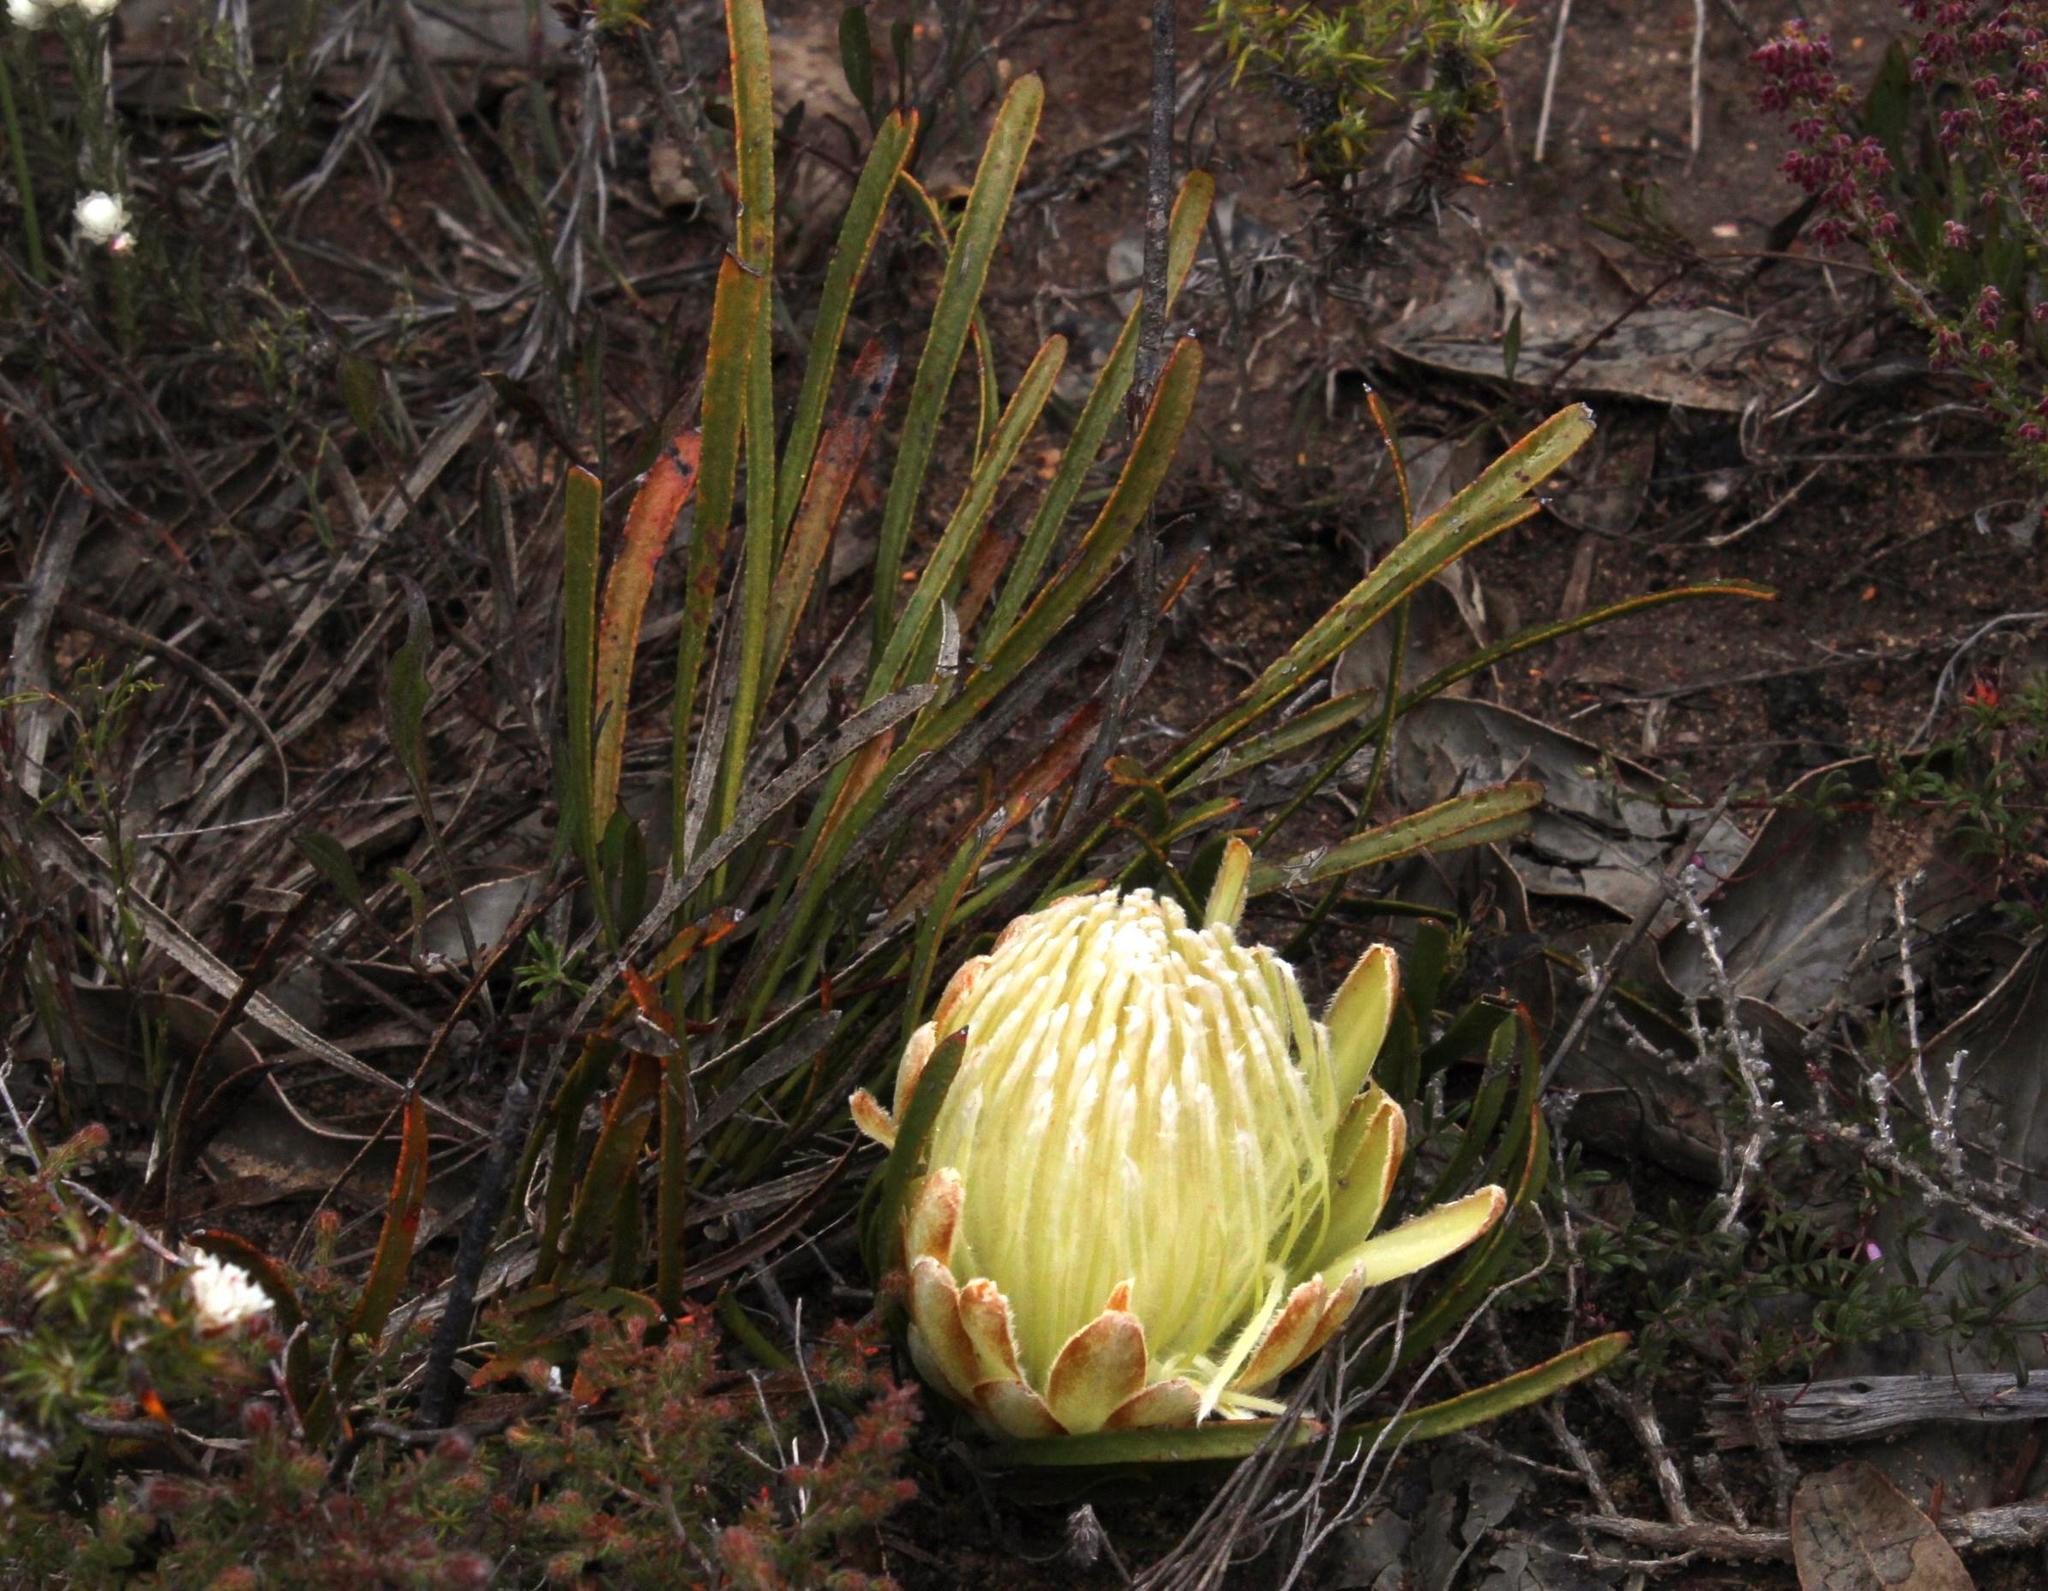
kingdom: Plantae
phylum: Tracheophyta
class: Magnoliopsida
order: Proteales
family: Proteaceae
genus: Protea
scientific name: Protea aspera
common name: Rough-leaf sugarbush
